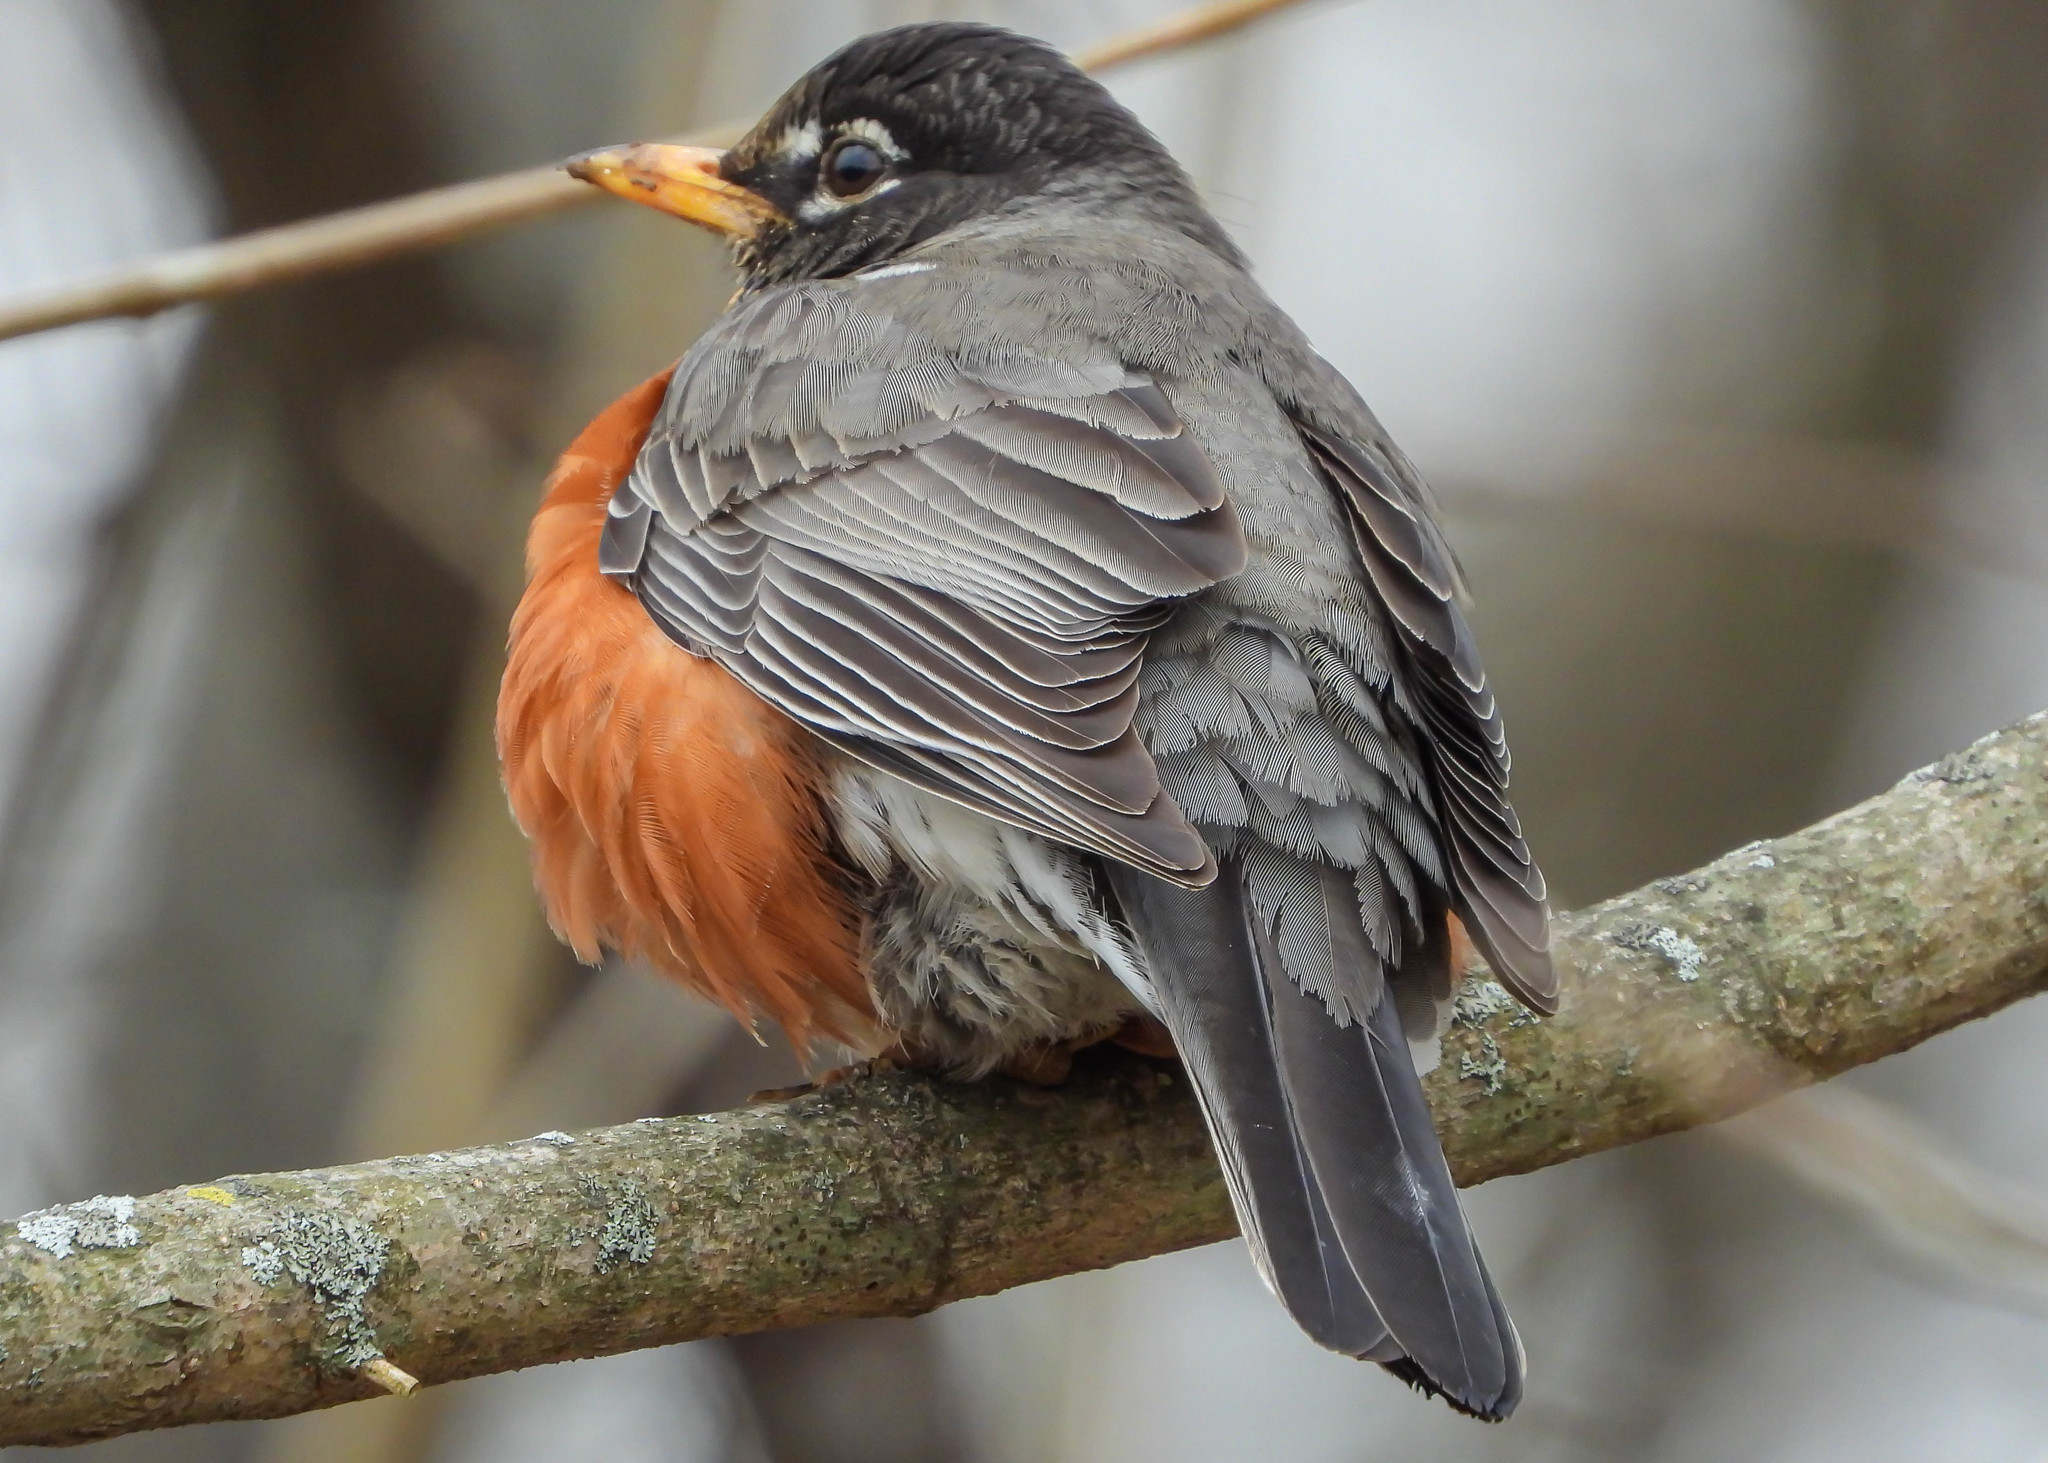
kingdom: Animalia
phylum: Chordata
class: Aves
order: Passeriformes
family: Turdidae
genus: Turdus
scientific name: Turdus migratorius
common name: American robin
